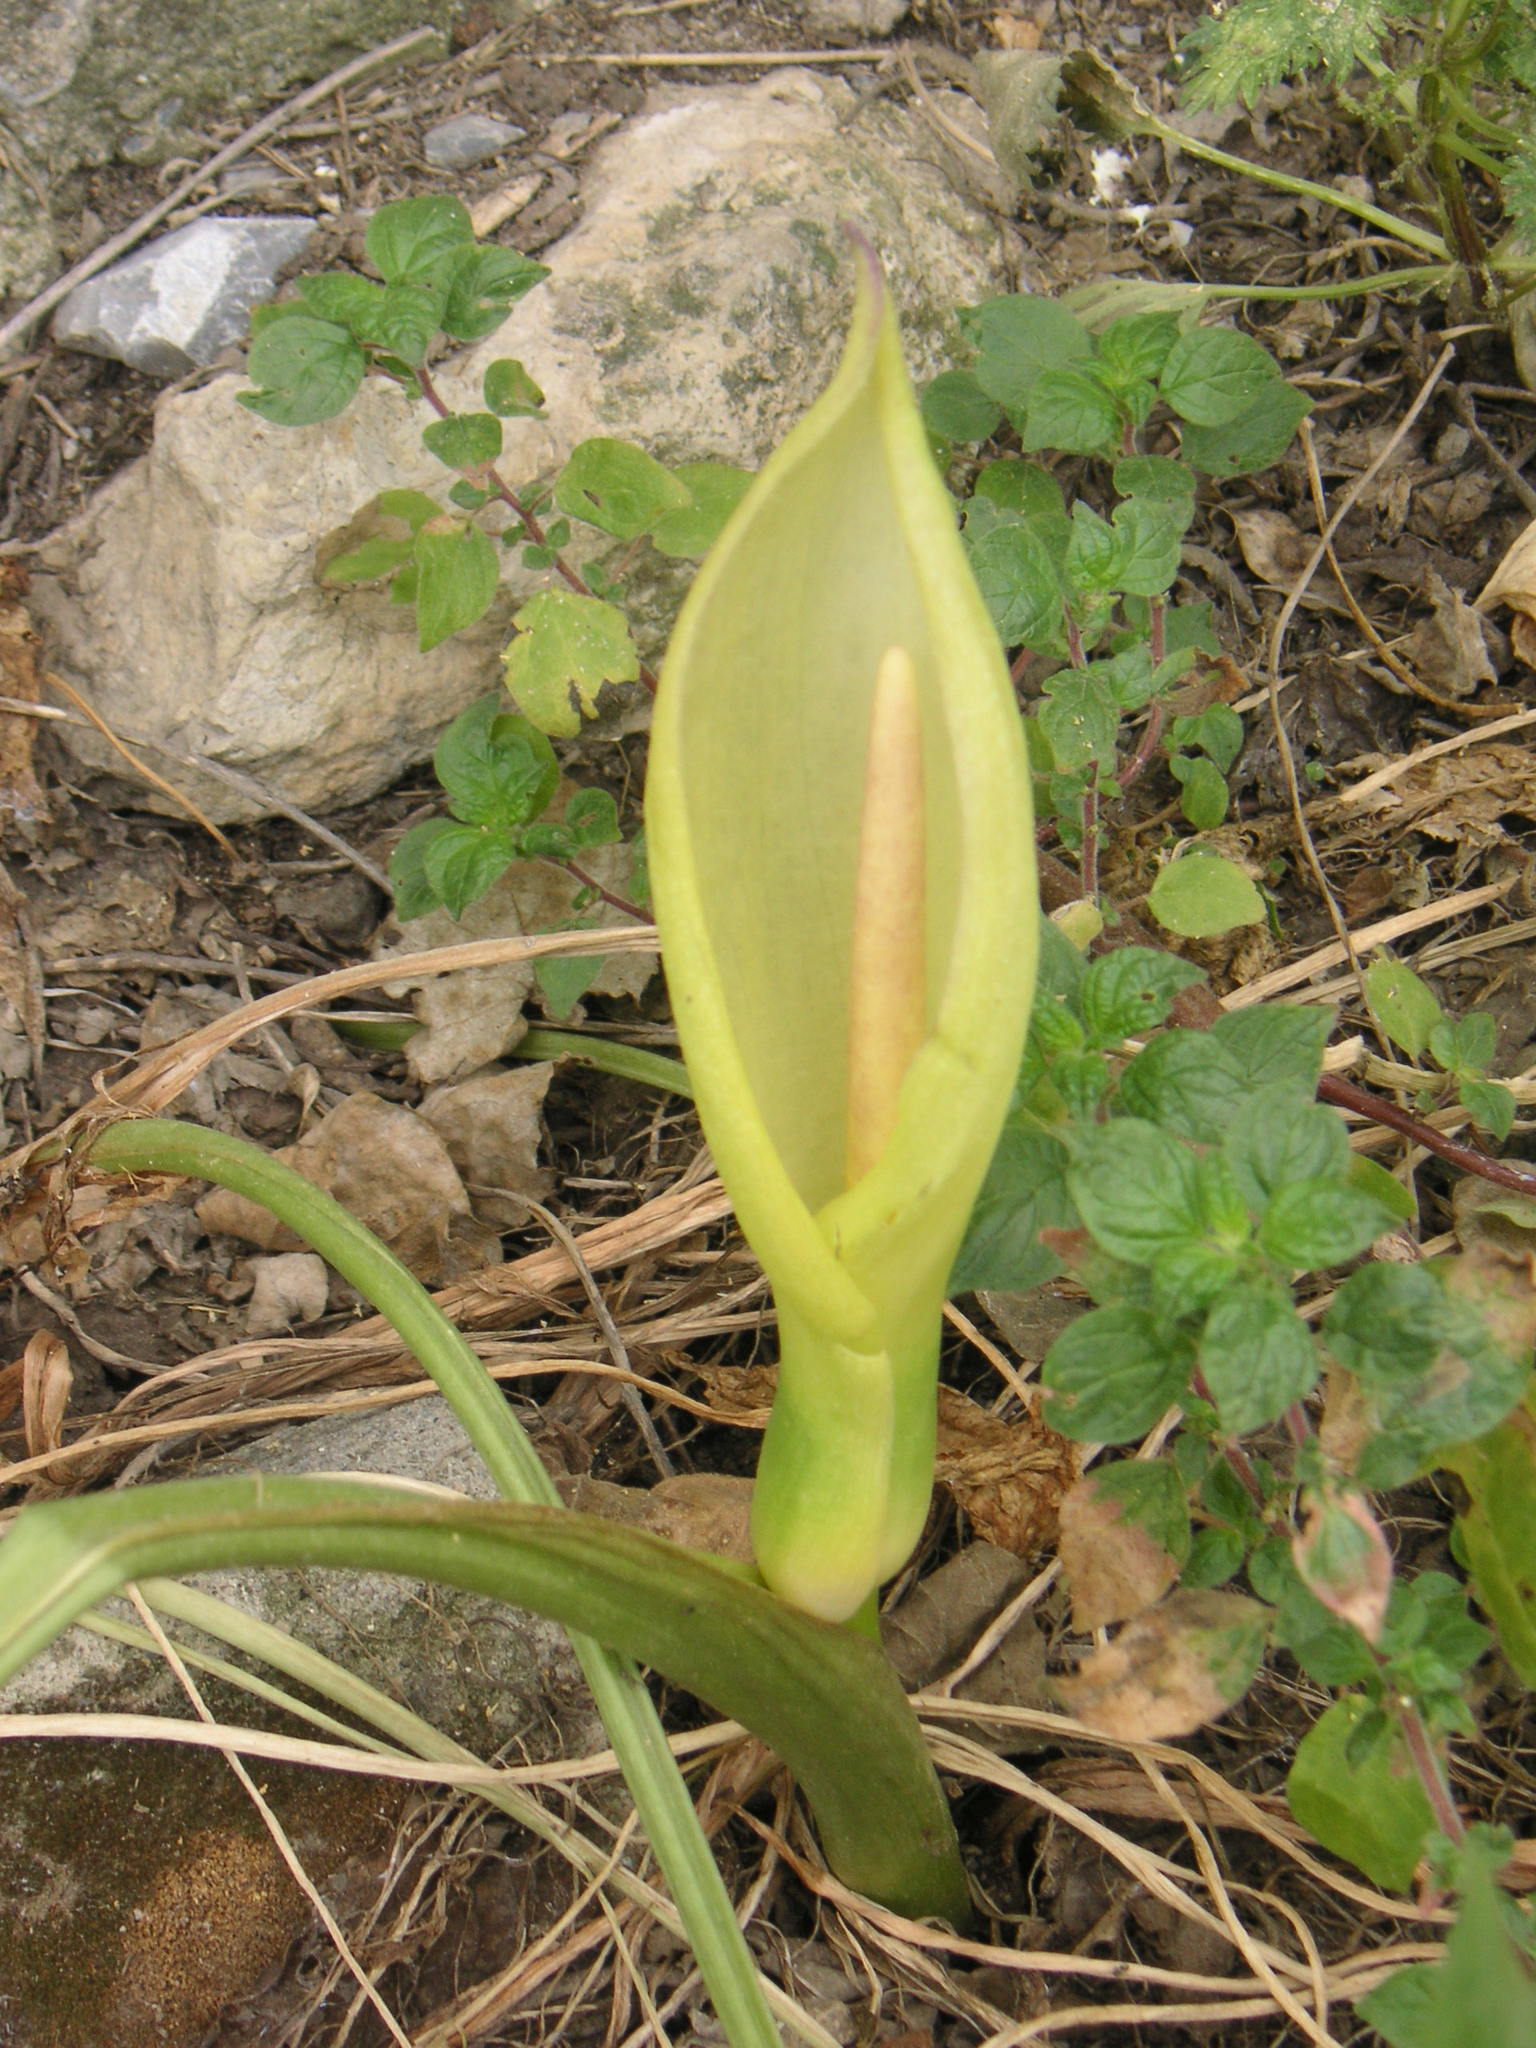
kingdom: Plantae
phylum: Tracheophyta
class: Liliopsida
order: Alismatales
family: Araceae
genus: Arum
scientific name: Arum concinnatum
